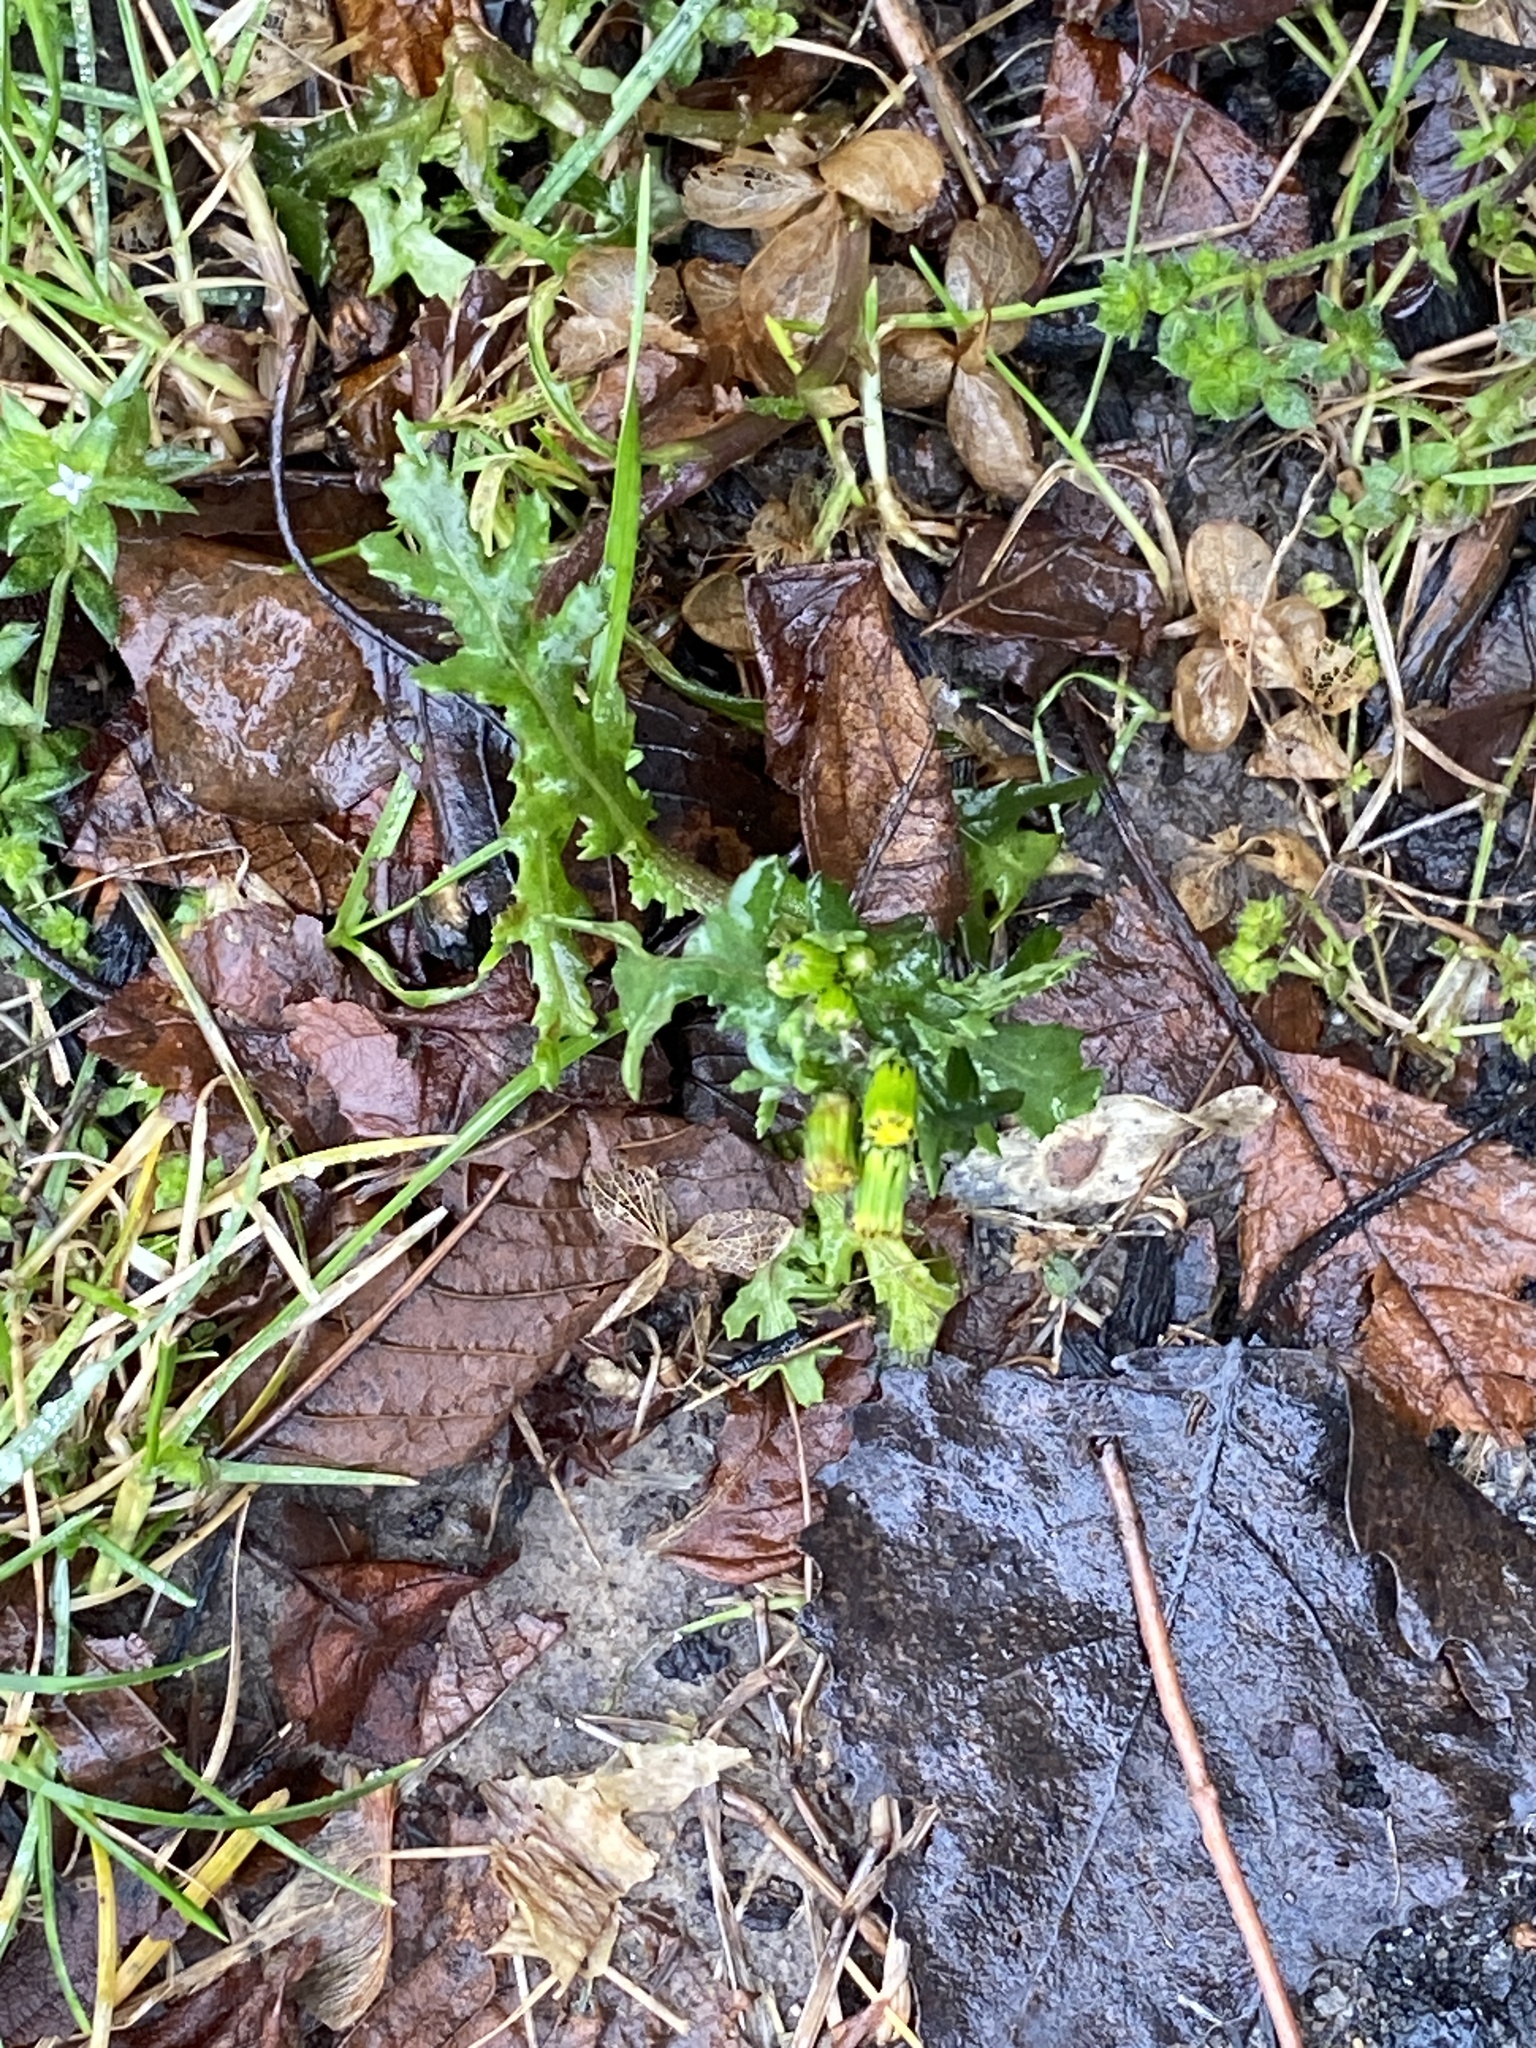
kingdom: Plantae
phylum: Tracheophyta
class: Magnoliopsida
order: Asterales
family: Asteraceae
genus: Senecio
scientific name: Senecio vulgaris
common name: Old-man-in-the-spring
